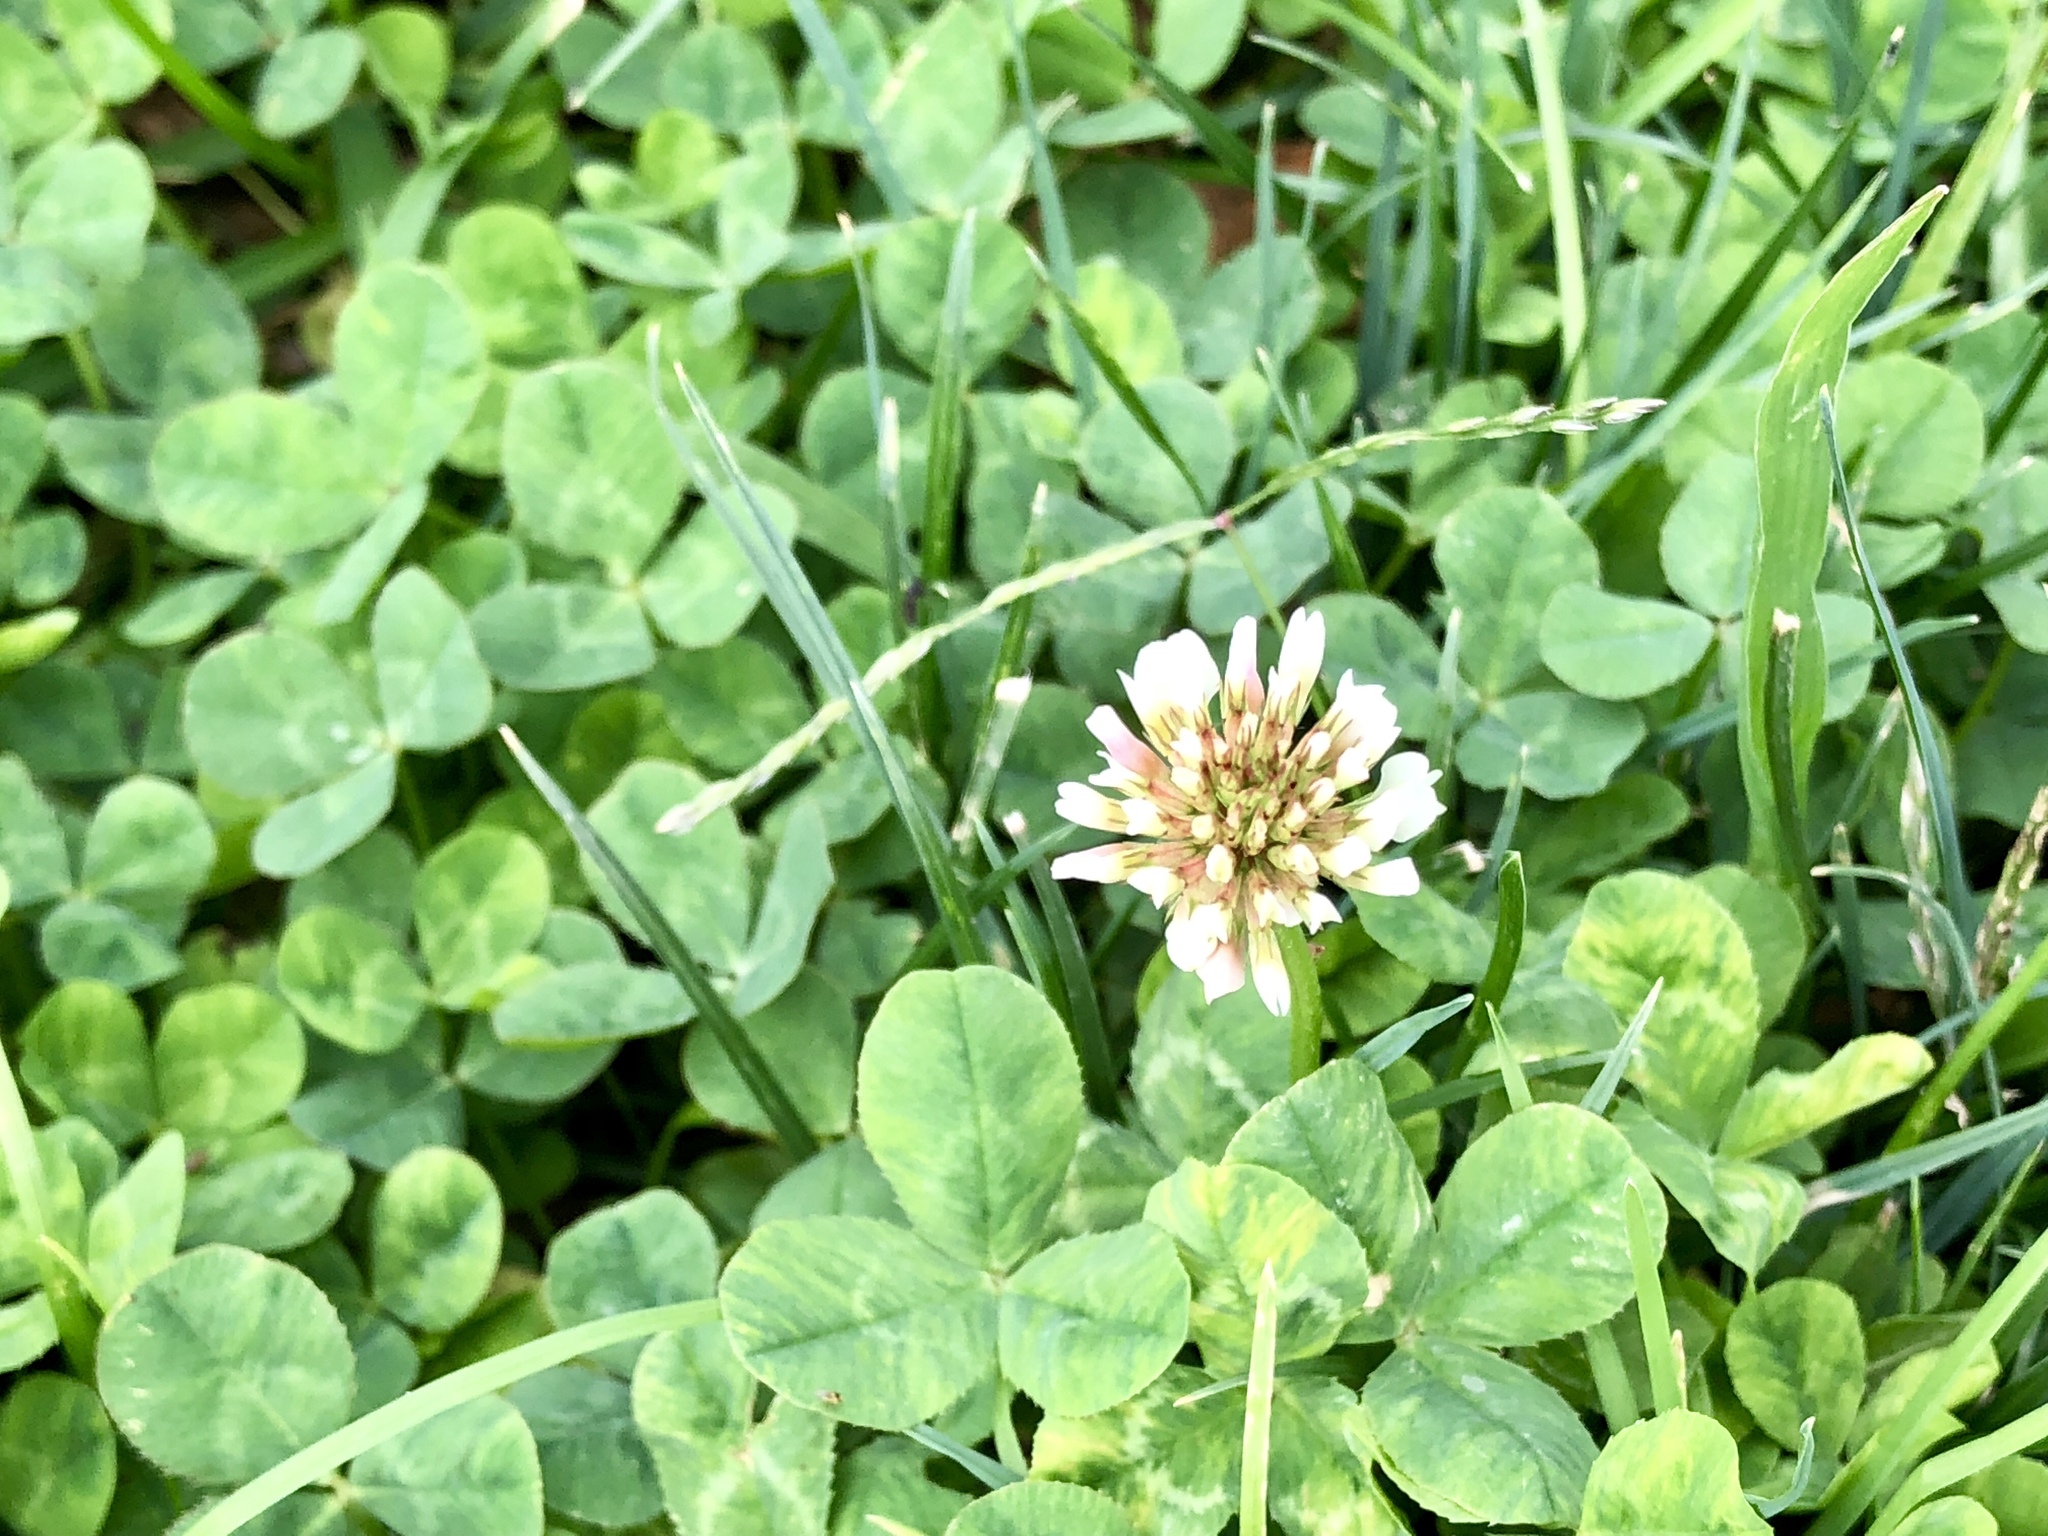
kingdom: Plantae
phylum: Tracheophyta
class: Magnoliopsida
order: Fabales
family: Fabaceae
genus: Trifolium
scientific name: Trifolium repens
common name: White clover
